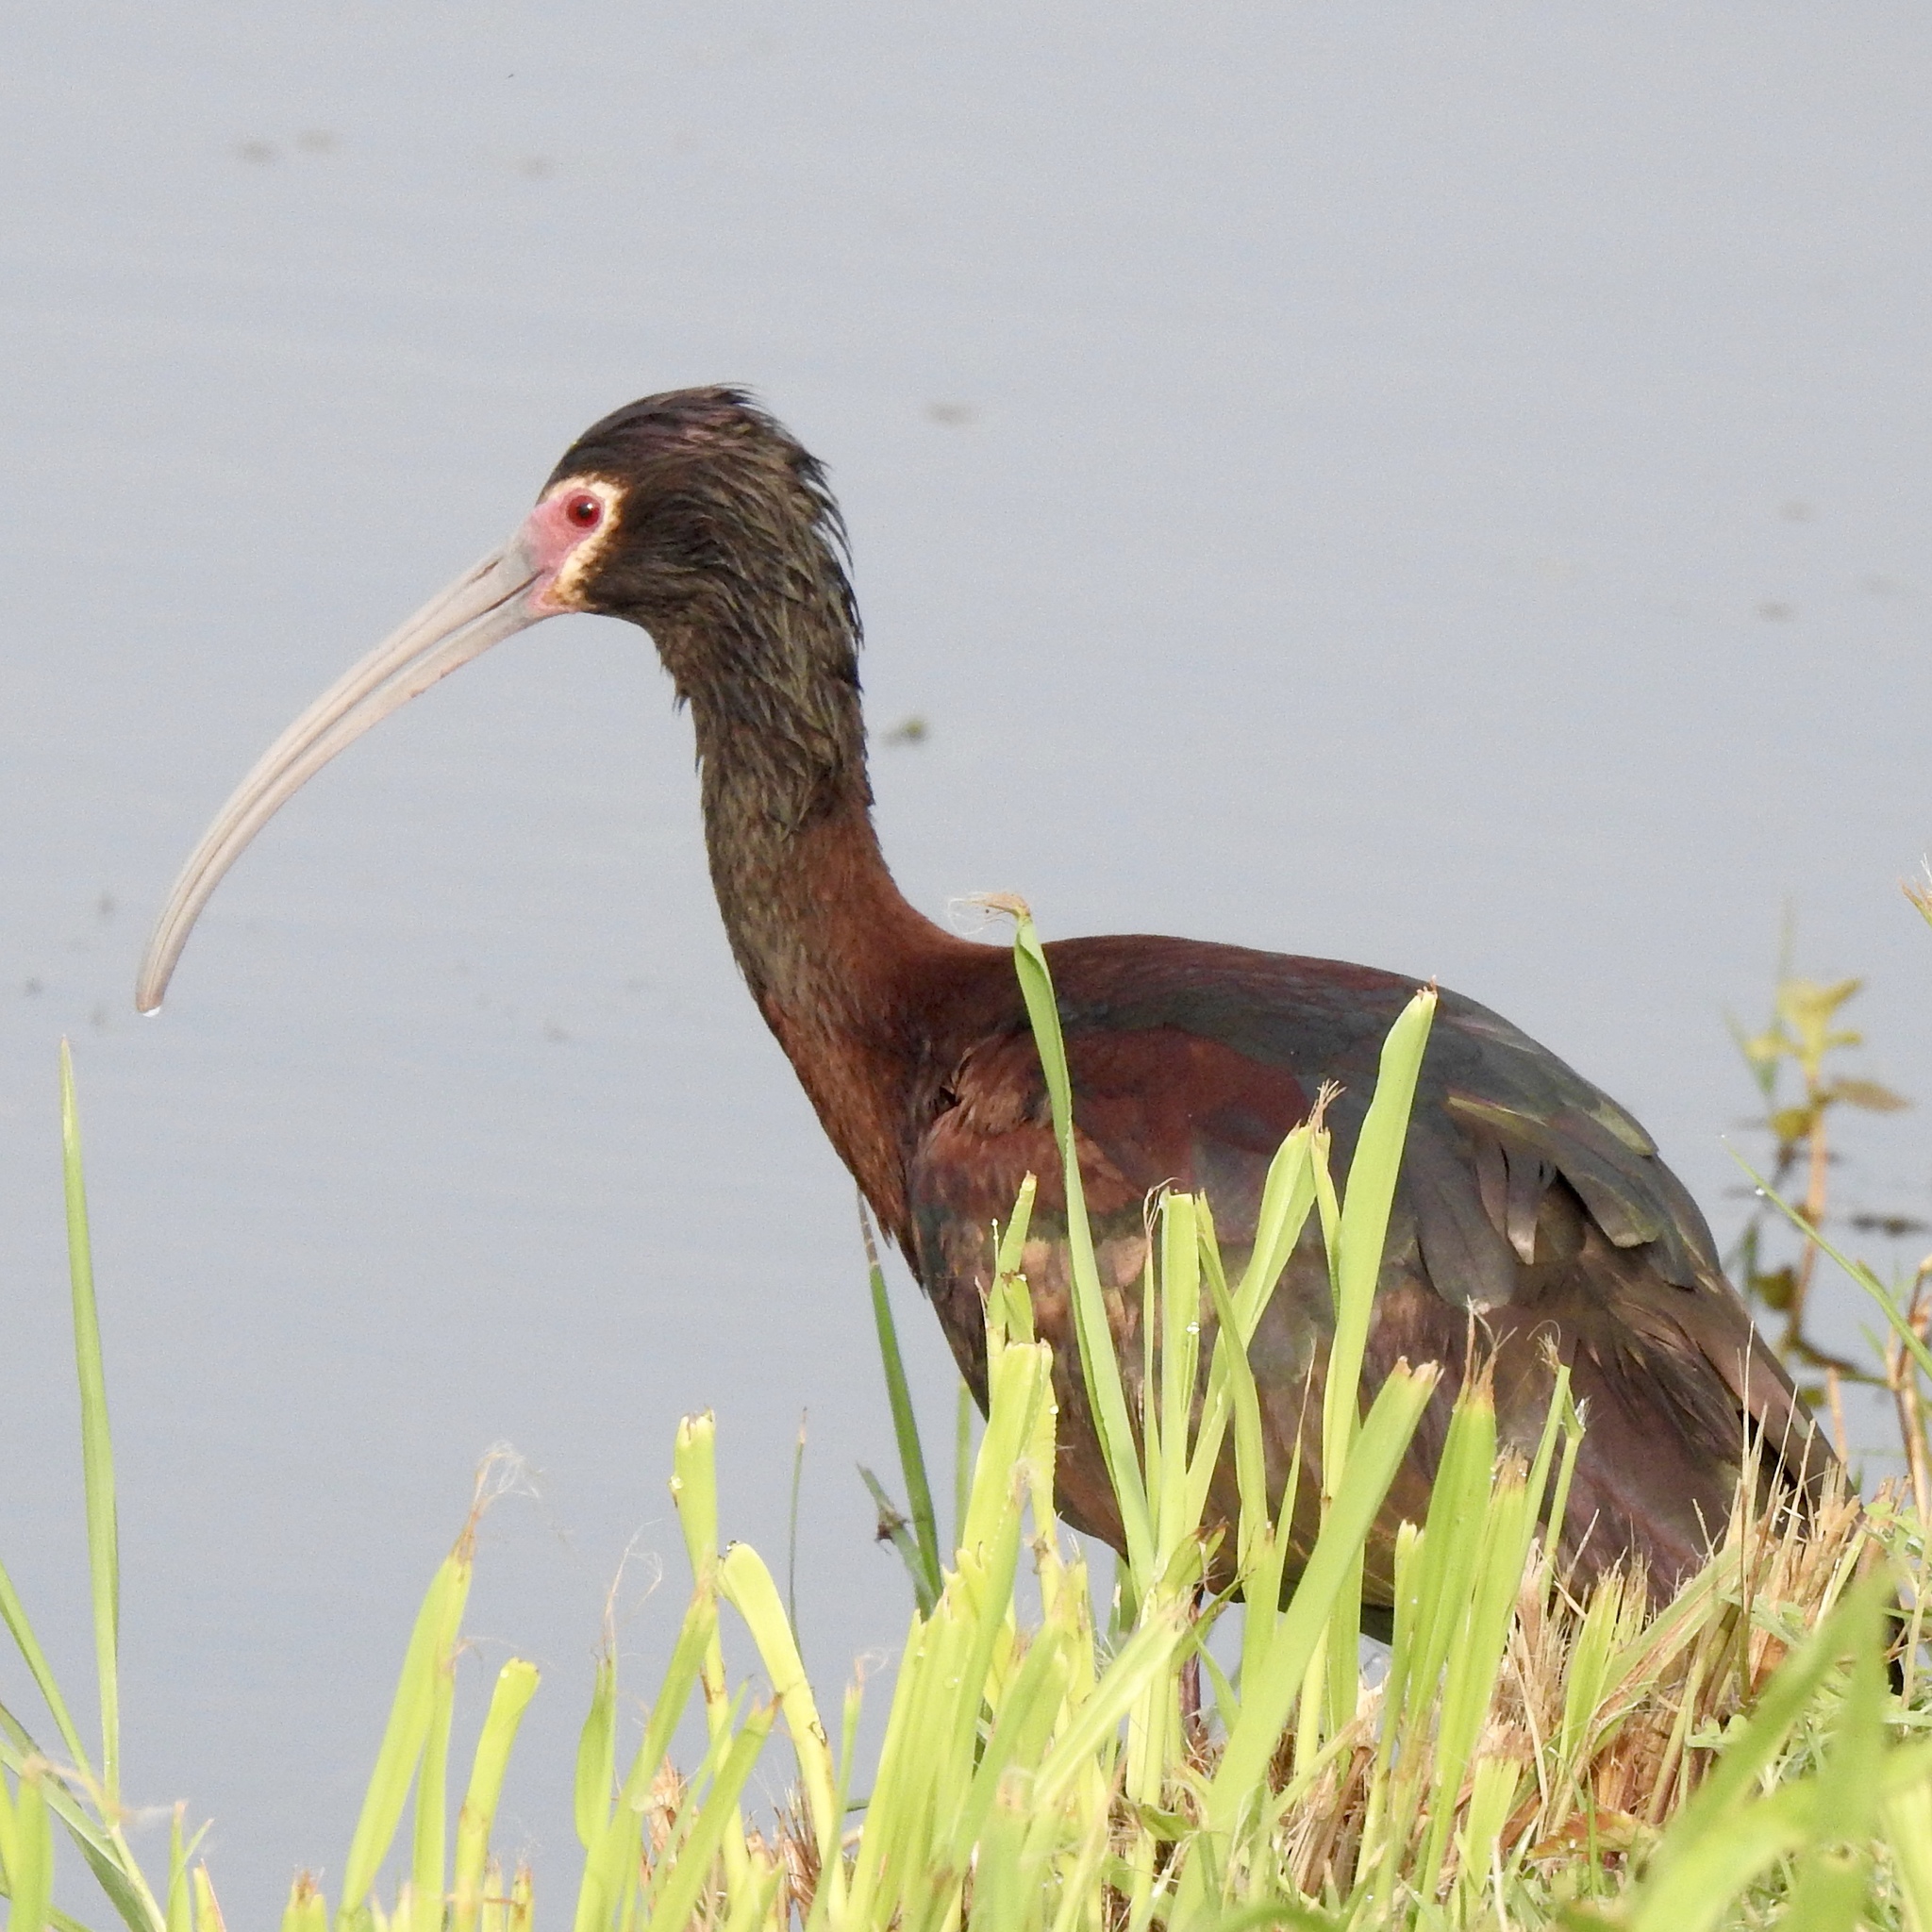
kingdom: Animalia
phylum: Chordata
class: Aves
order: Pelecaniformes
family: Threskiornithidae
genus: Plegadis
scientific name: Plegadis chihi
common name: White-faced ibis
